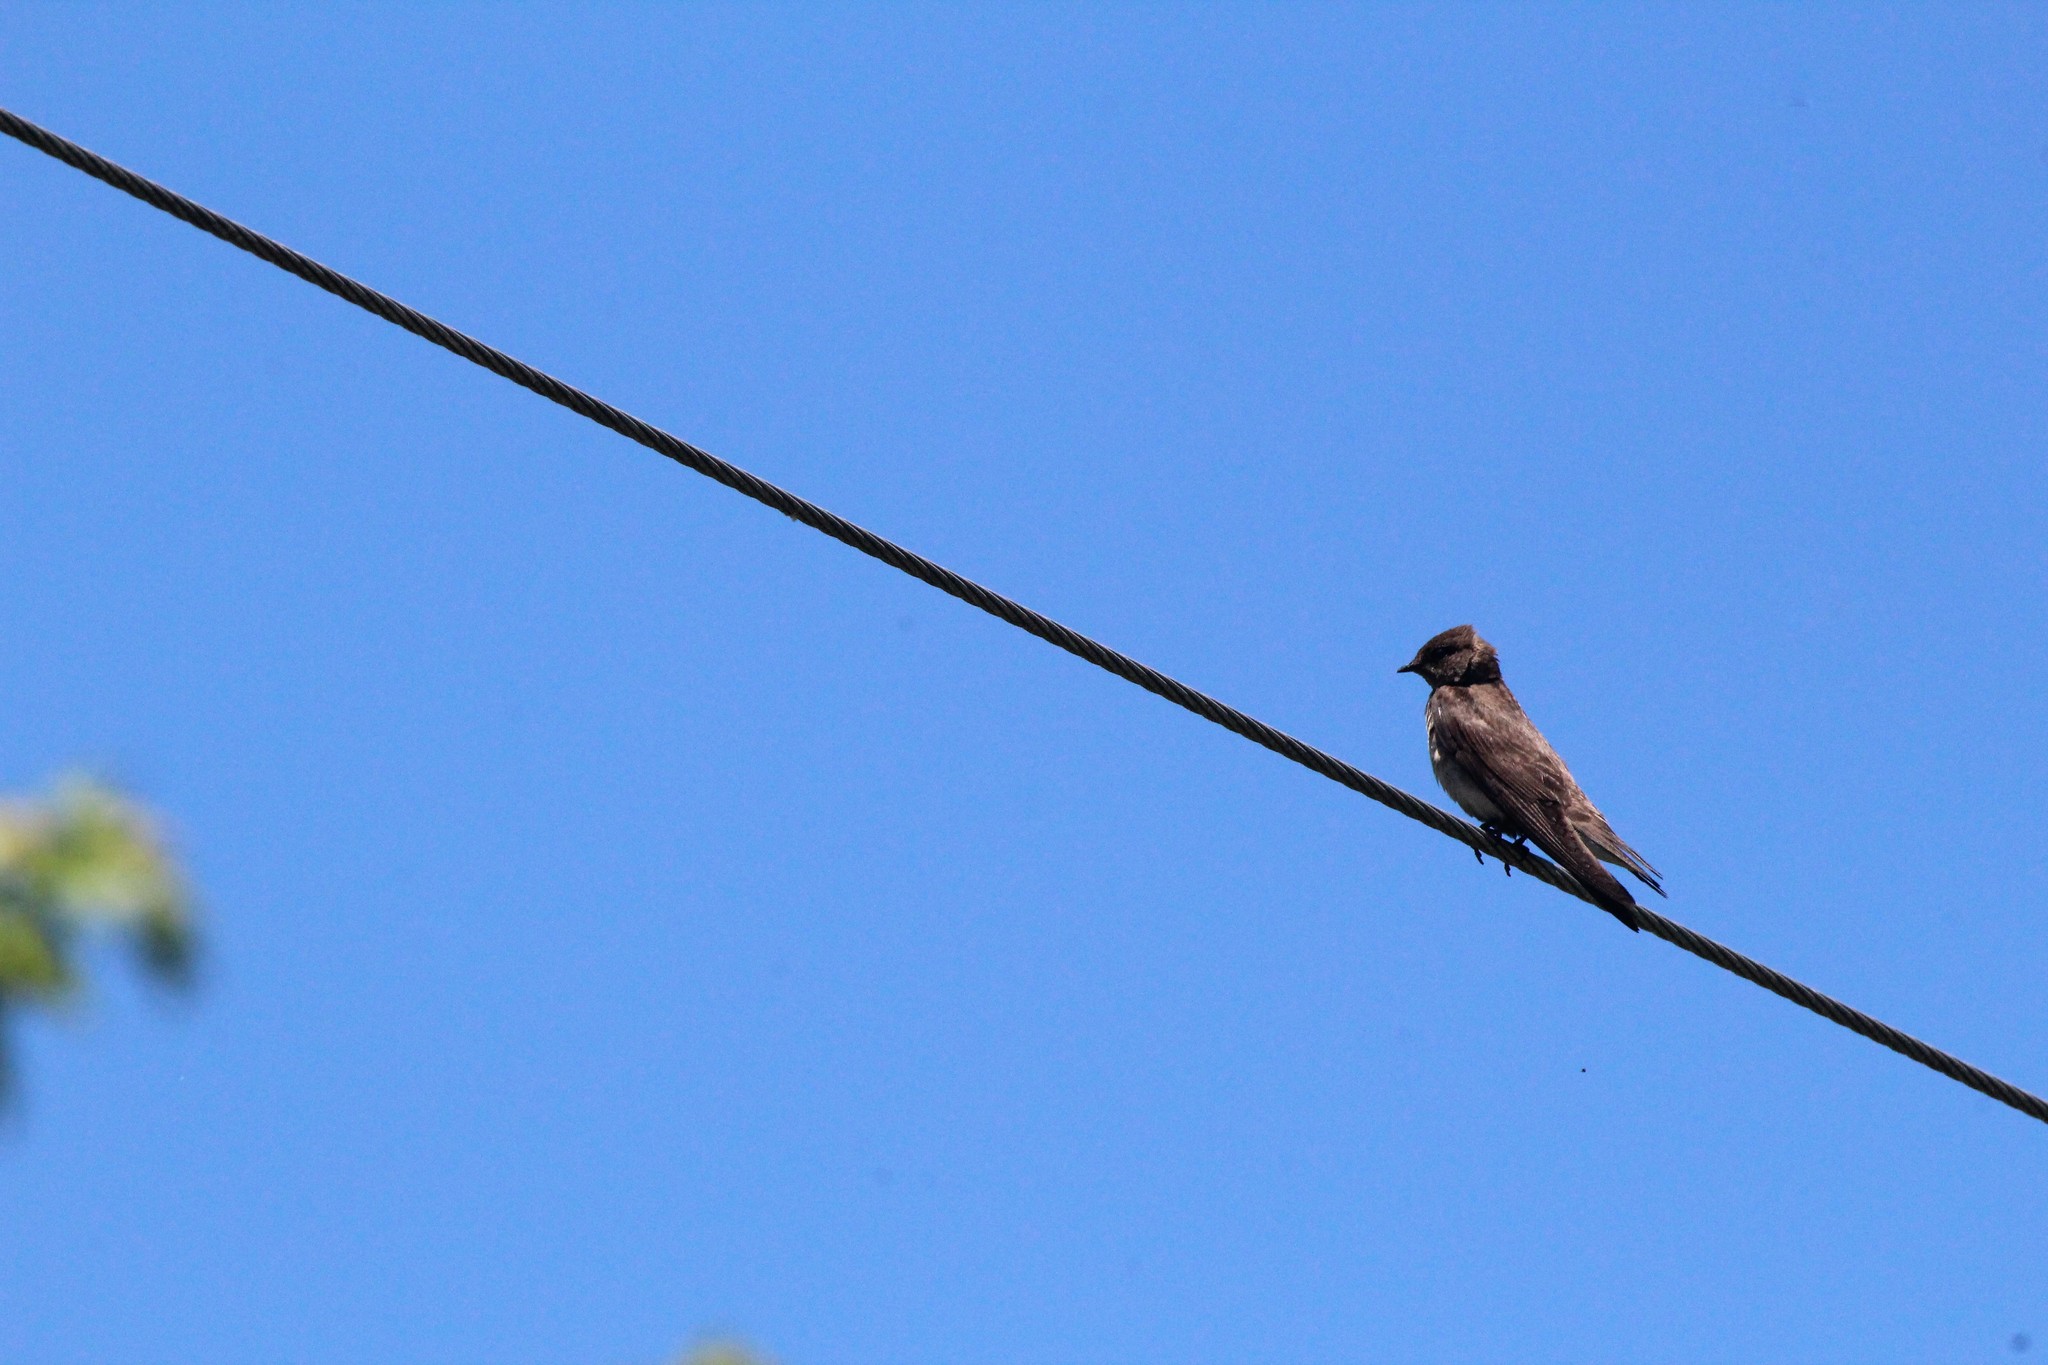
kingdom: Animalia
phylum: Chordata
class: Aves
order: Passeriformes
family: Hirundinidae
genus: Stelgidopteryx
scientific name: Stelgidopteryx serripennis
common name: Northern rough-winged swallow
